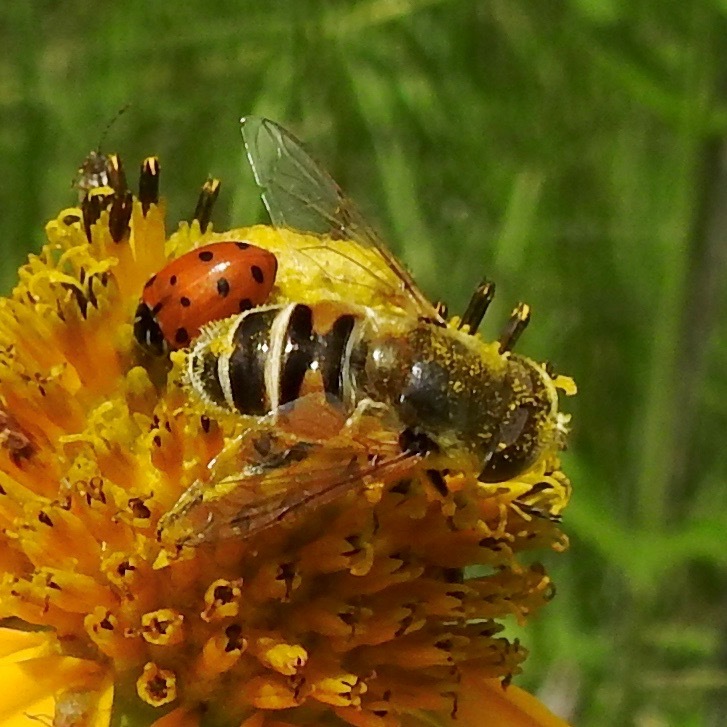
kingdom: Animalia
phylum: Arthropoda
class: Insecta
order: Diptera
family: Syrphidae
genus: Eristalis
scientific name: Eristalis stipator
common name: Yellow-shouldered drone fly
